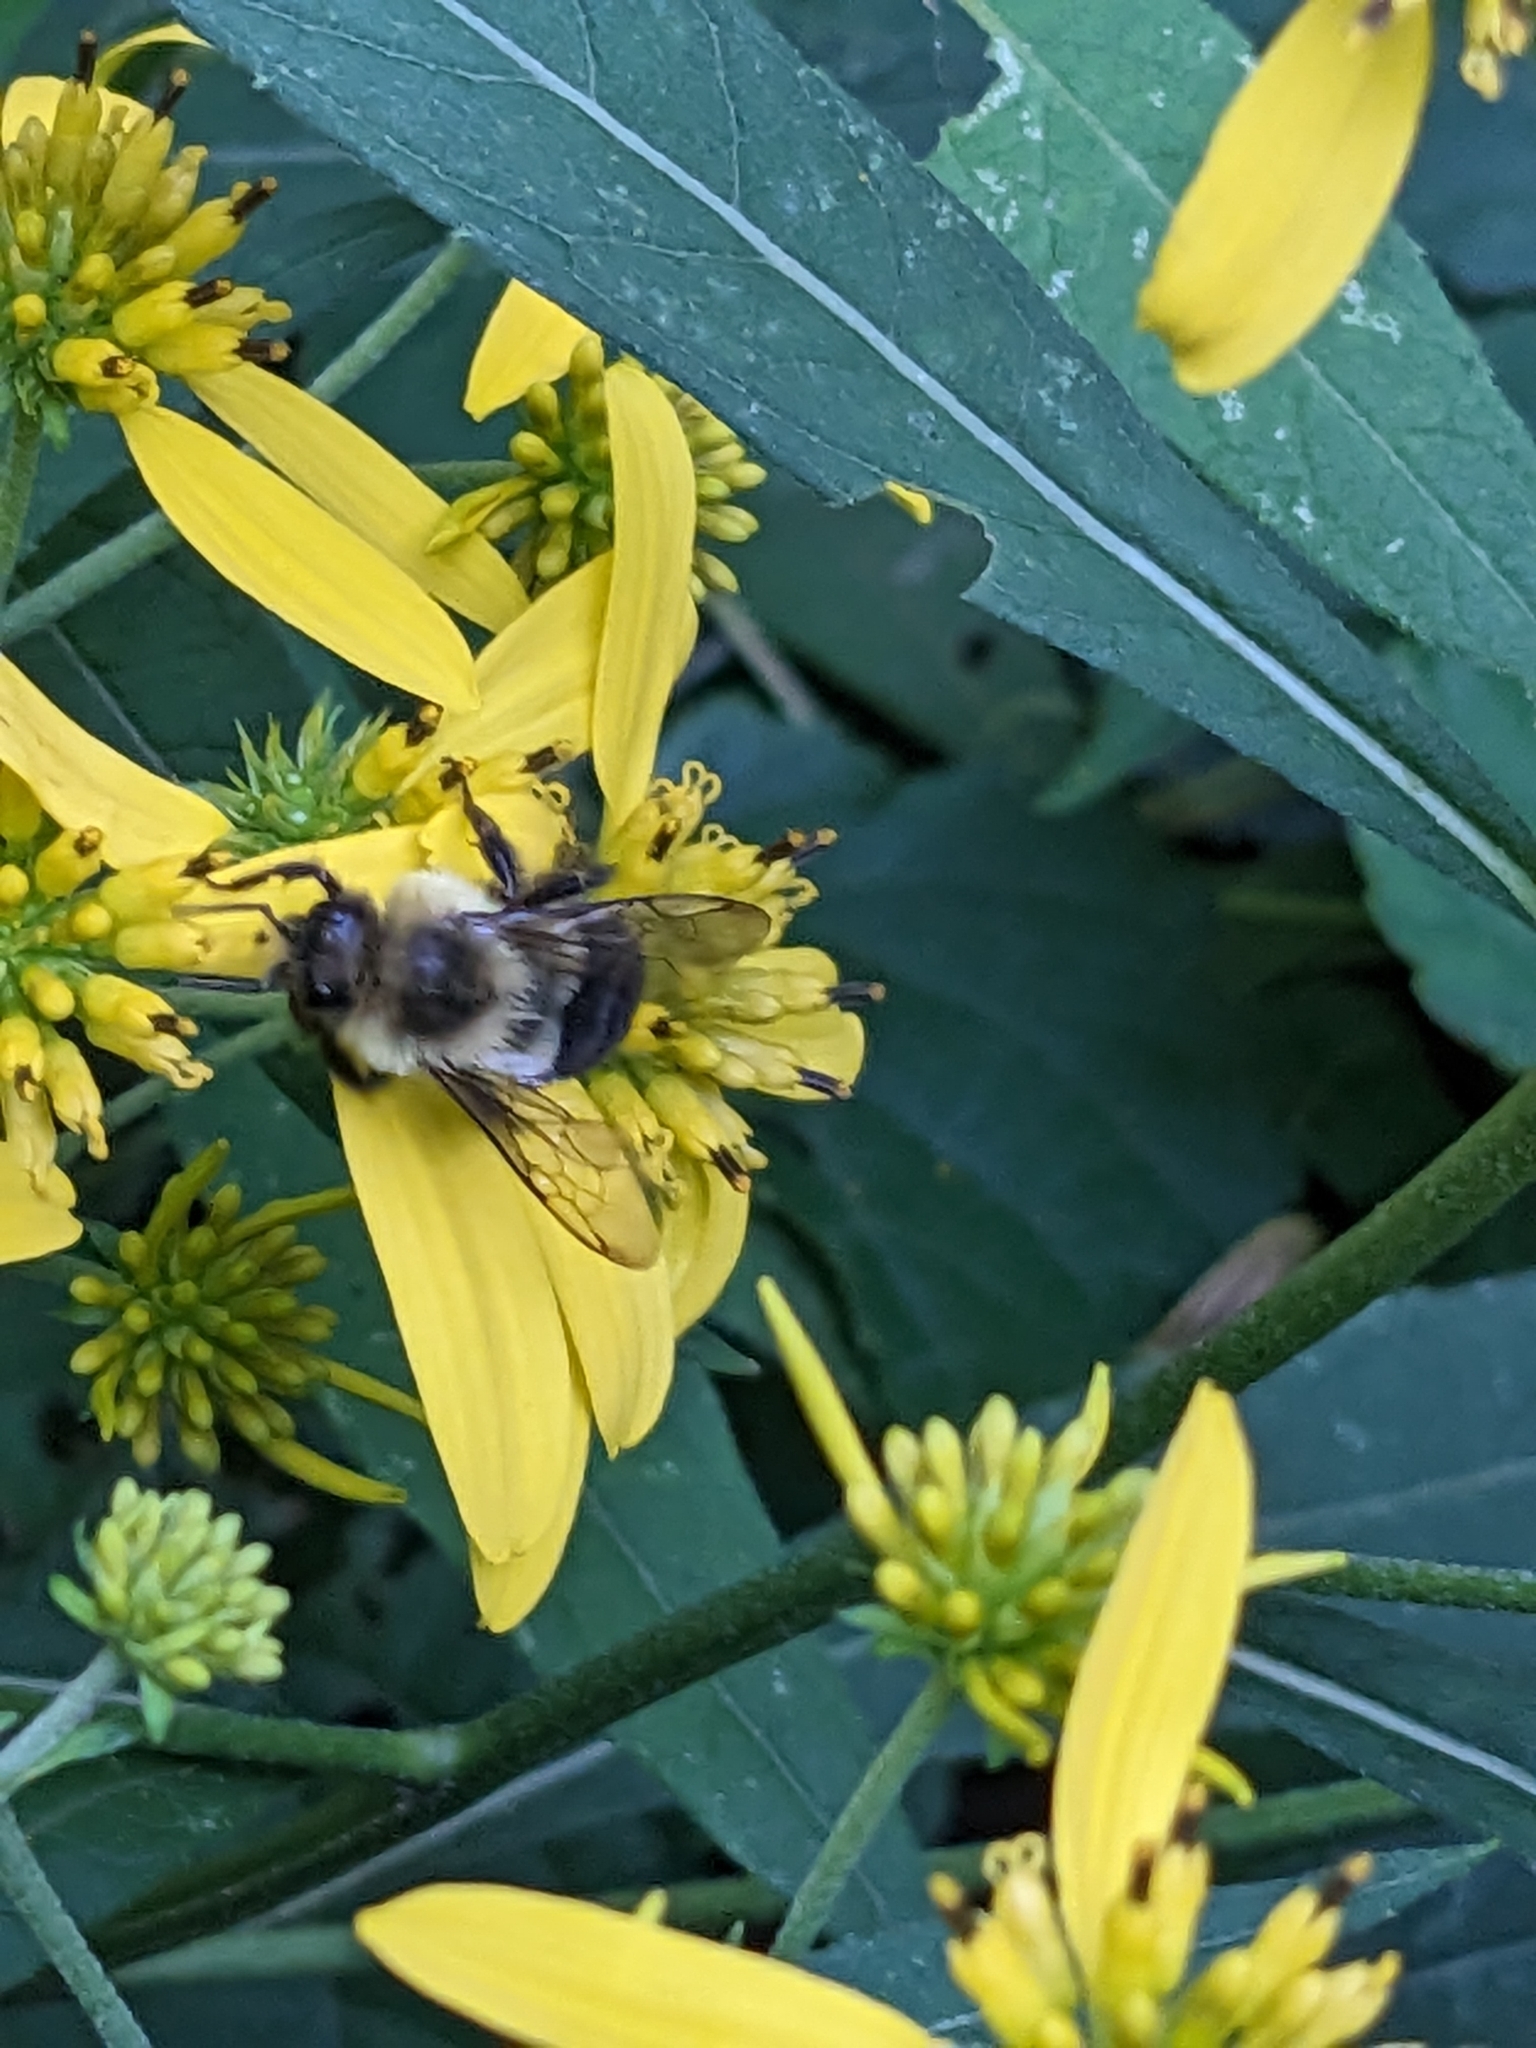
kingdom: Animalia
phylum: Arthropoda
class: Insecta
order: Hymenoptera
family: Apidae
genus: Bombus
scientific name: Bombus impatiens
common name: Common eastern bumble bee
